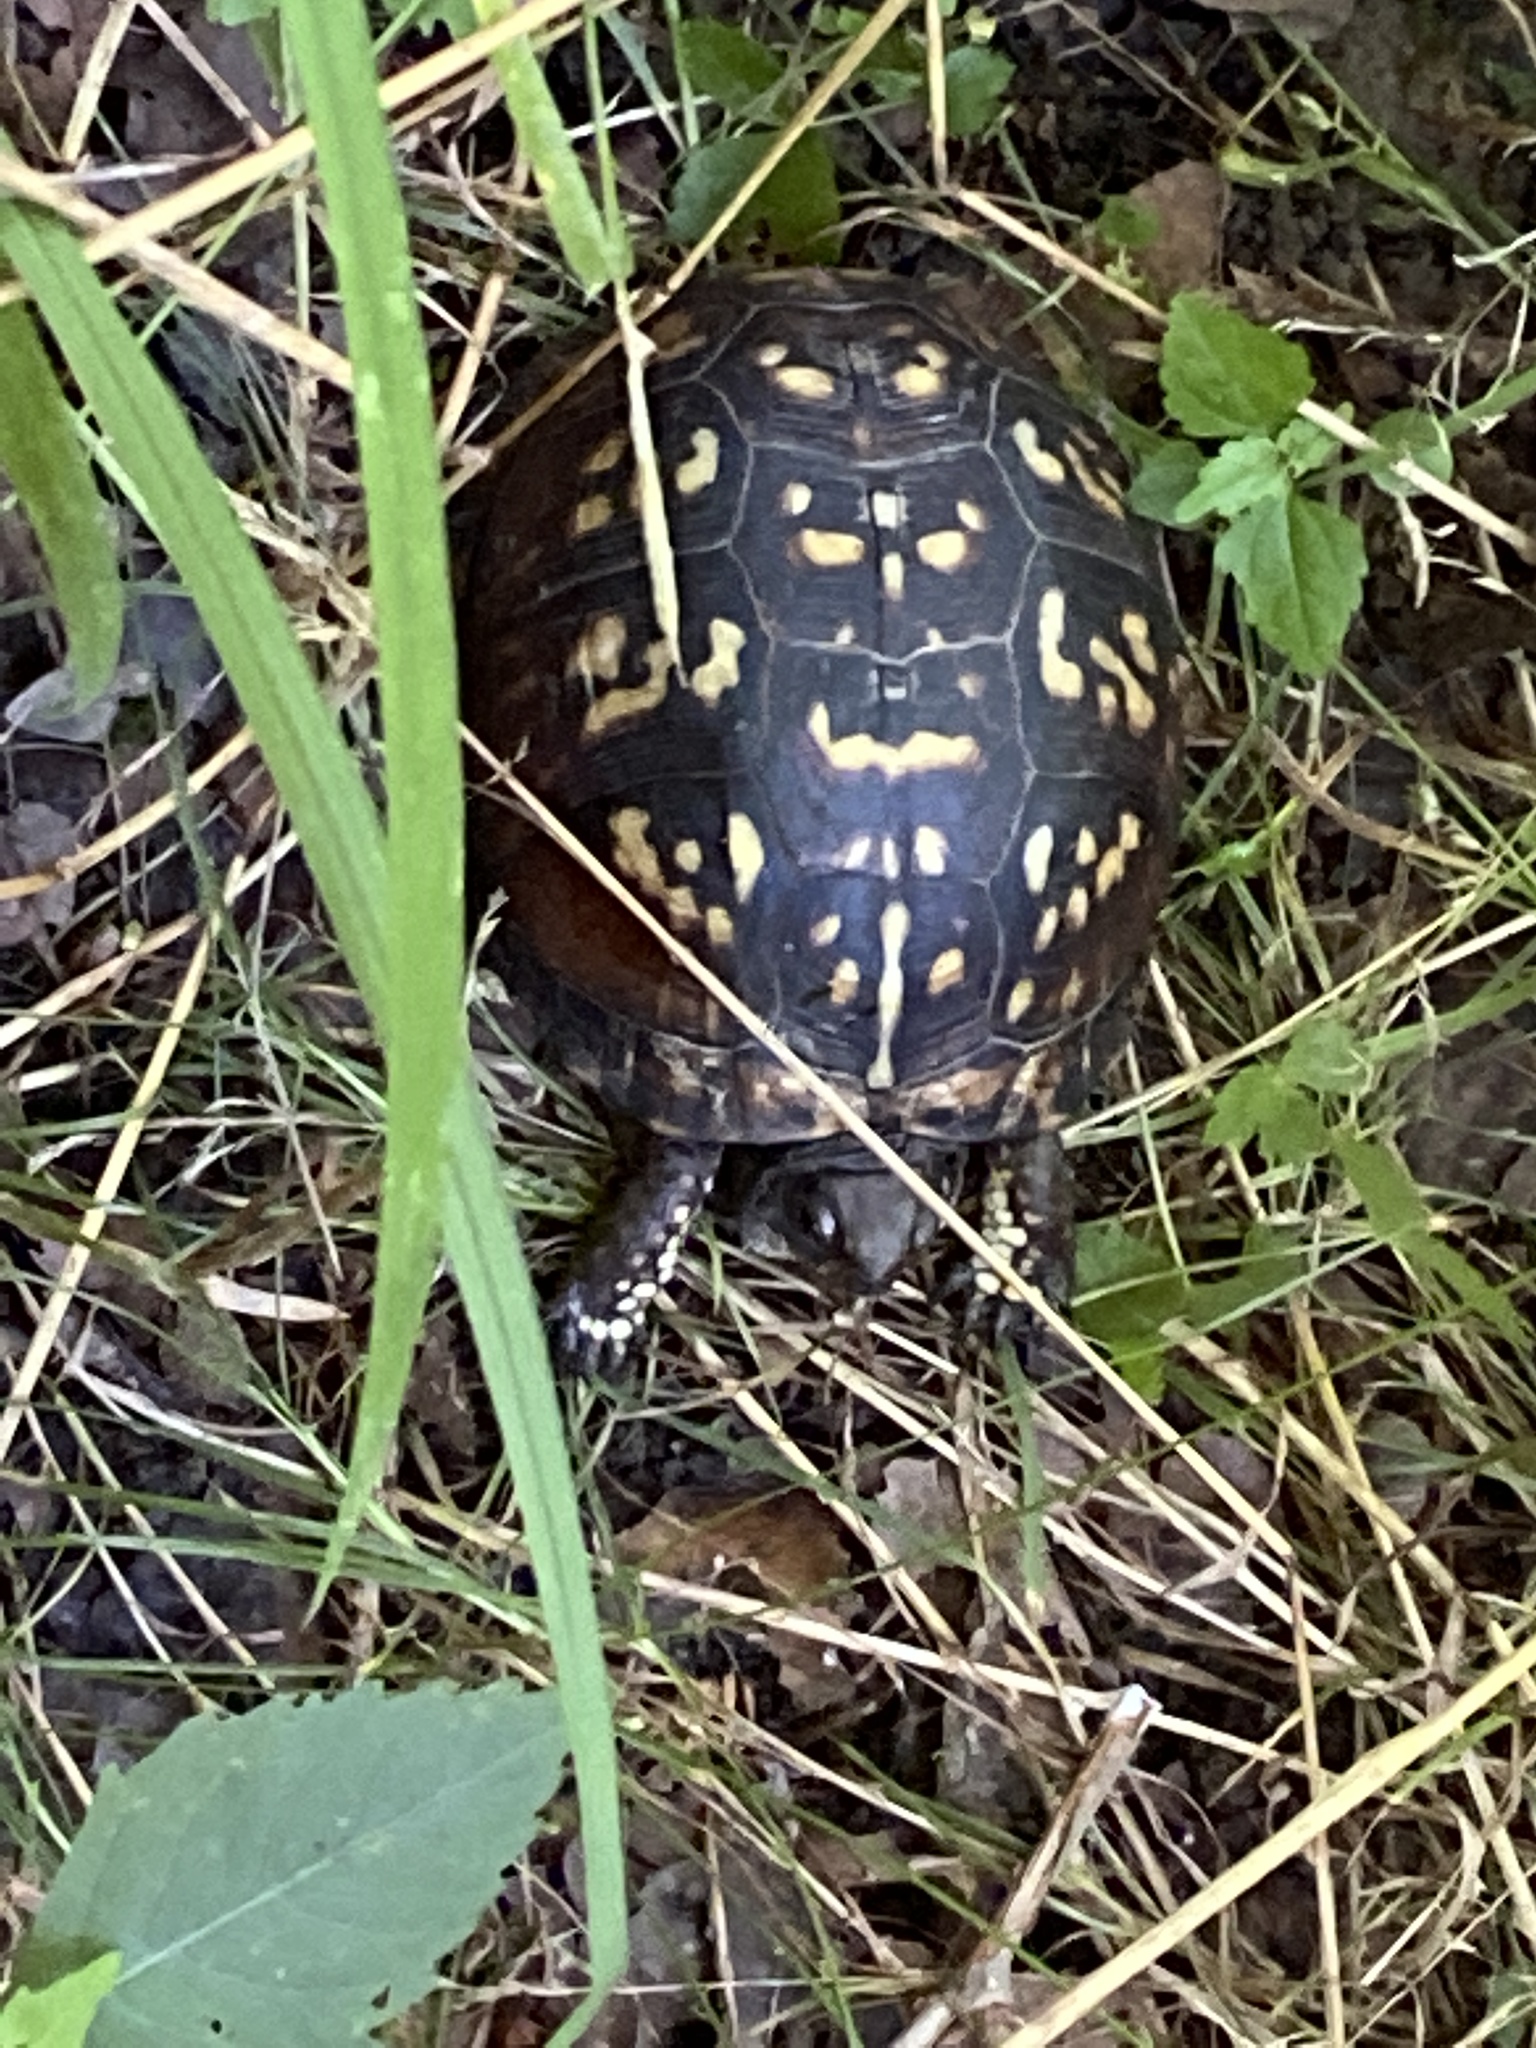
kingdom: Animalia
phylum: Chordata
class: Testudines
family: Emydidae
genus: Terrapene
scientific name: Terrapene carolina
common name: Common box turtle
